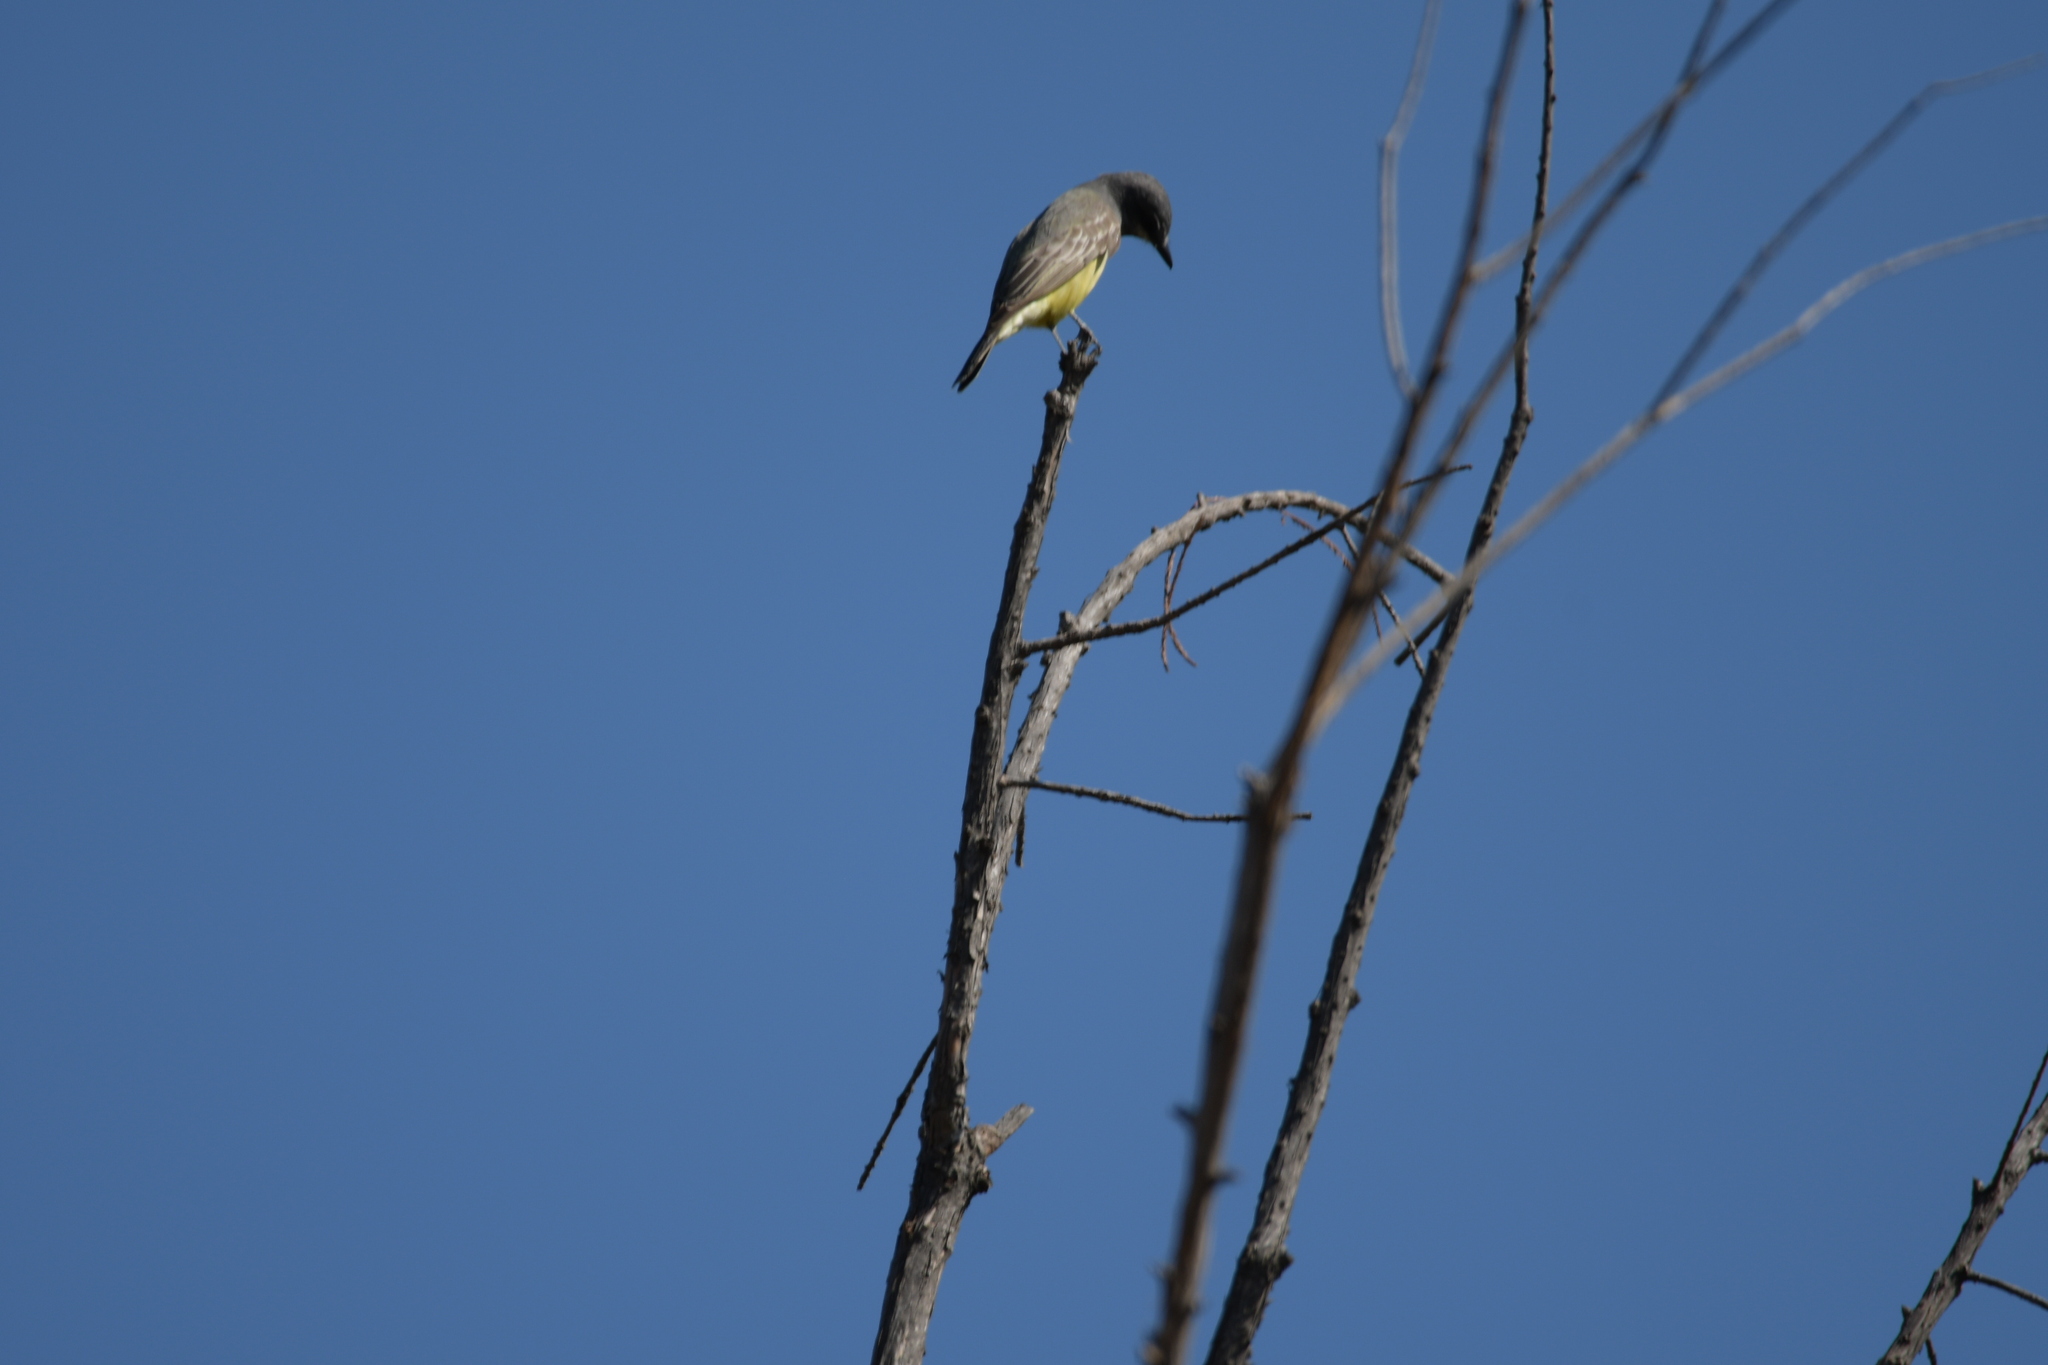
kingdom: Animalia
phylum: Chordata
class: Aves
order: Passeriformes
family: Tyrannidae
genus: Tyrannus
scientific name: Tyrannus vociferans
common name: Cassin's kingbird
